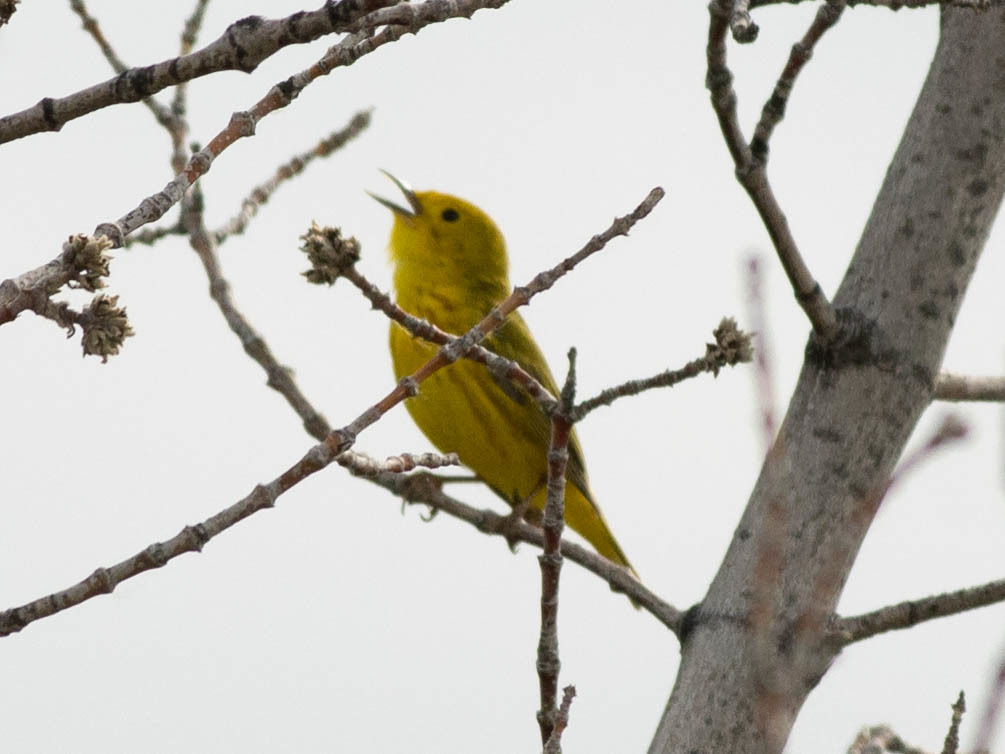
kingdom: Animalia
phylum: Chordata
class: Aves
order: Passeriformes
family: Parulidae
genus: Setophaga
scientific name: Setophaga petechia
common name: Yellow warbler
